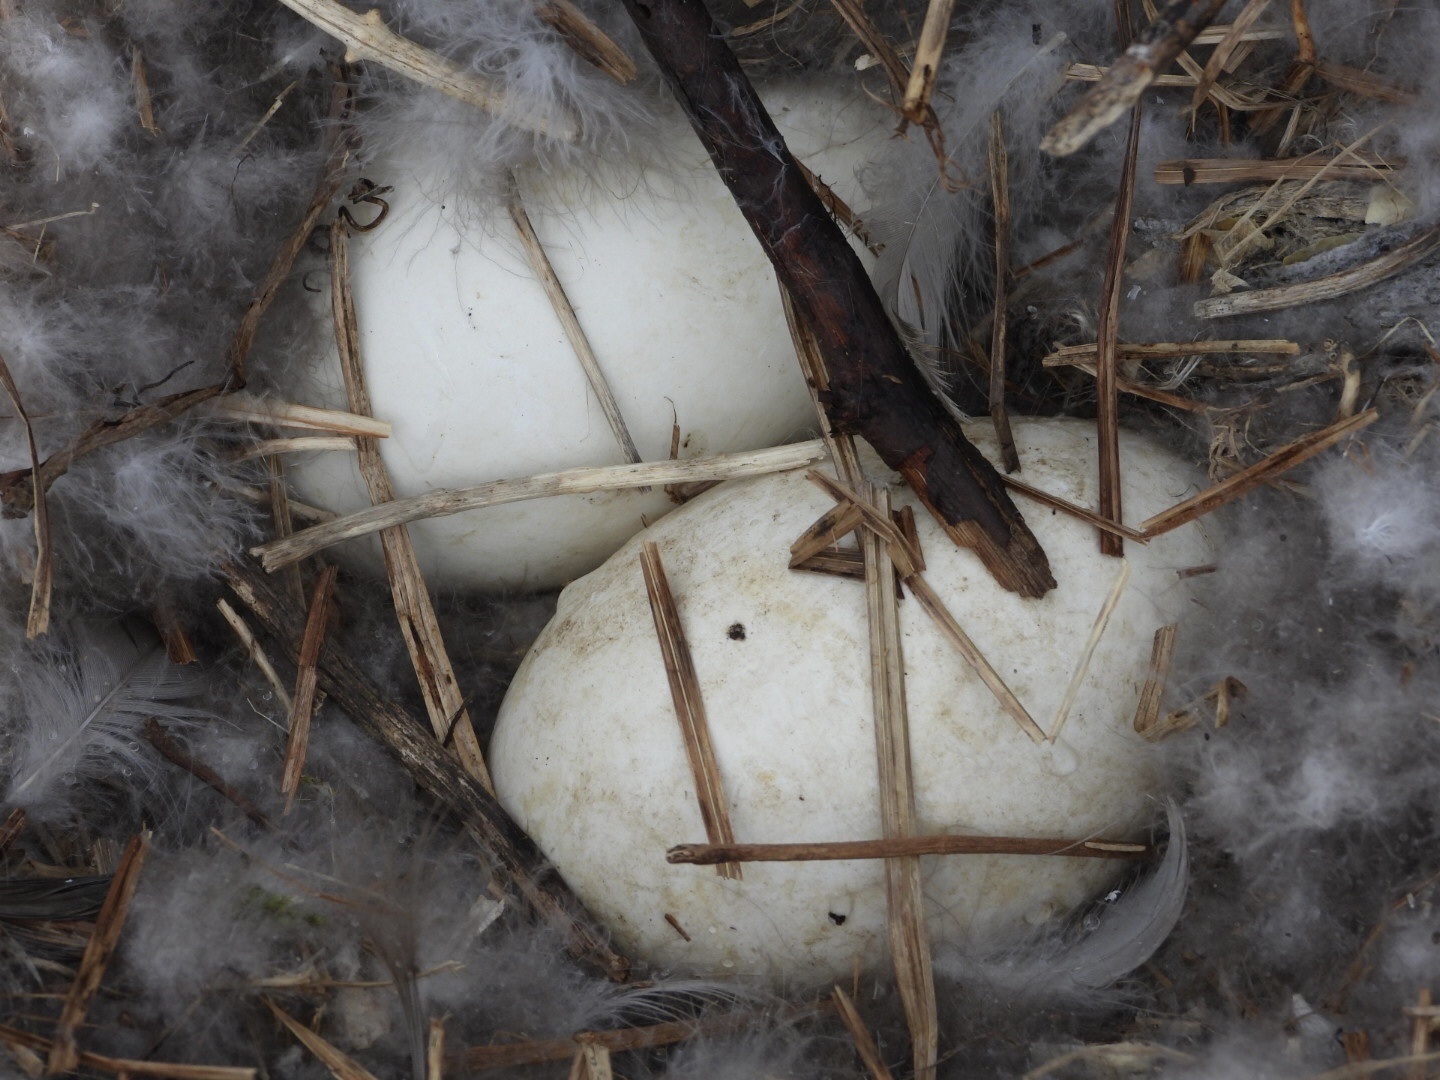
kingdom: Animalia
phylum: Chordata
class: Aves
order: Anseriformes
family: Anatidae
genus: Branta
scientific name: Branta canadensis
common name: Canada goose
